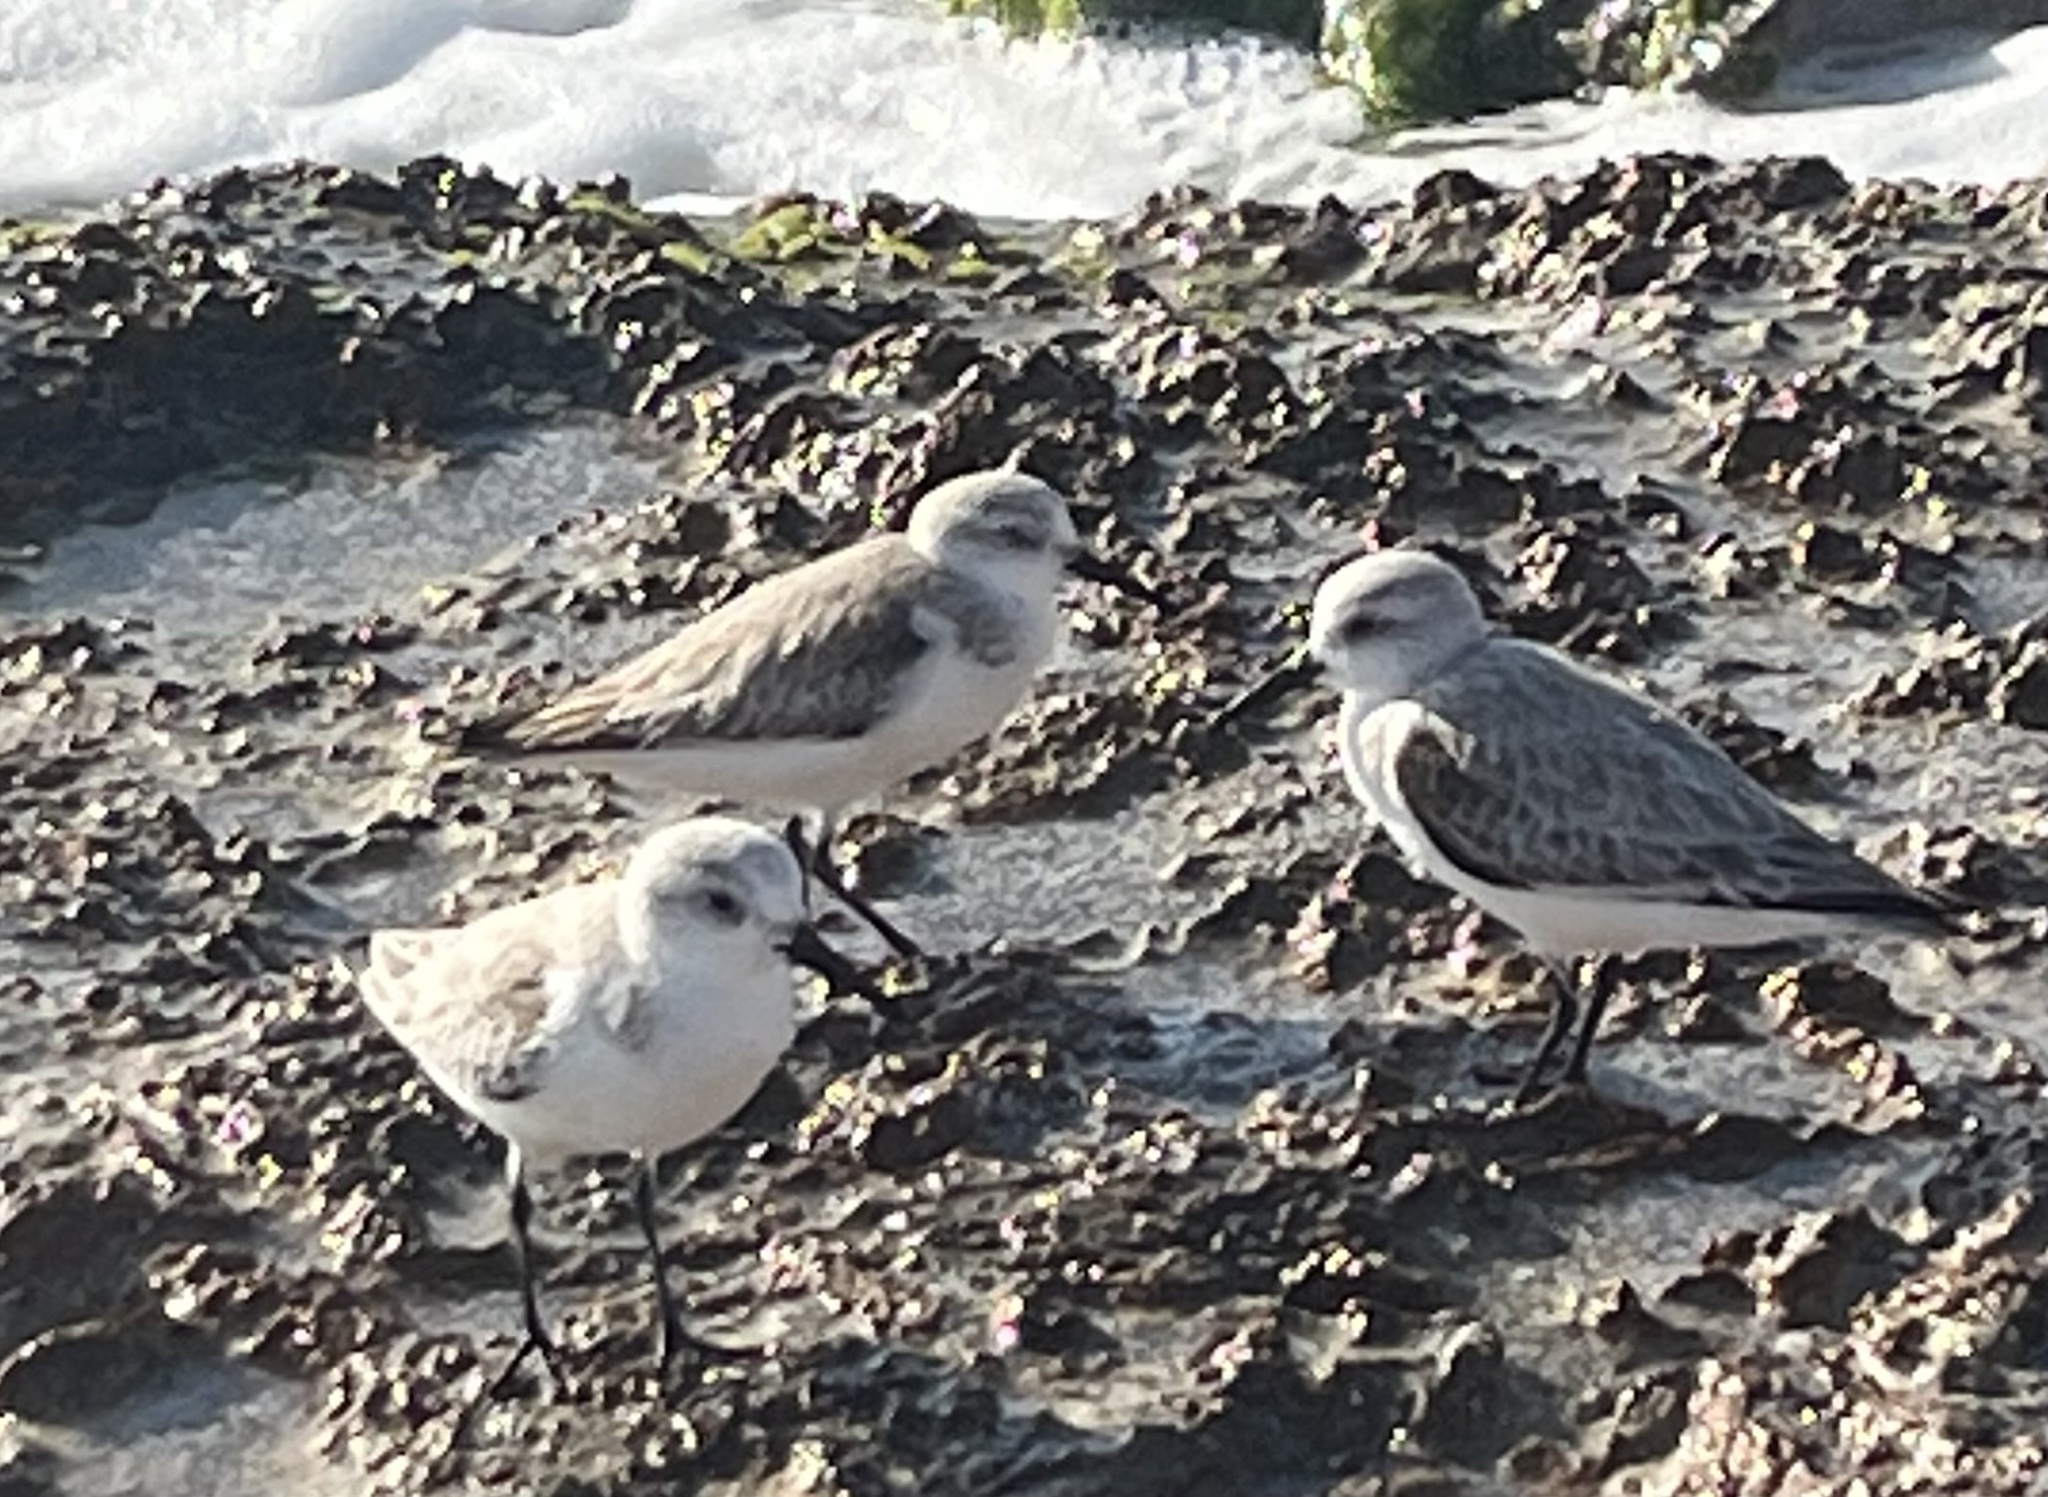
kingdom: Animalia
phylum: Chordata
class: Aves
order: Charadriiformes
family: Scolopacidae
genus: Calidris
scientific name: Calidris alba
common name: Sanderling
